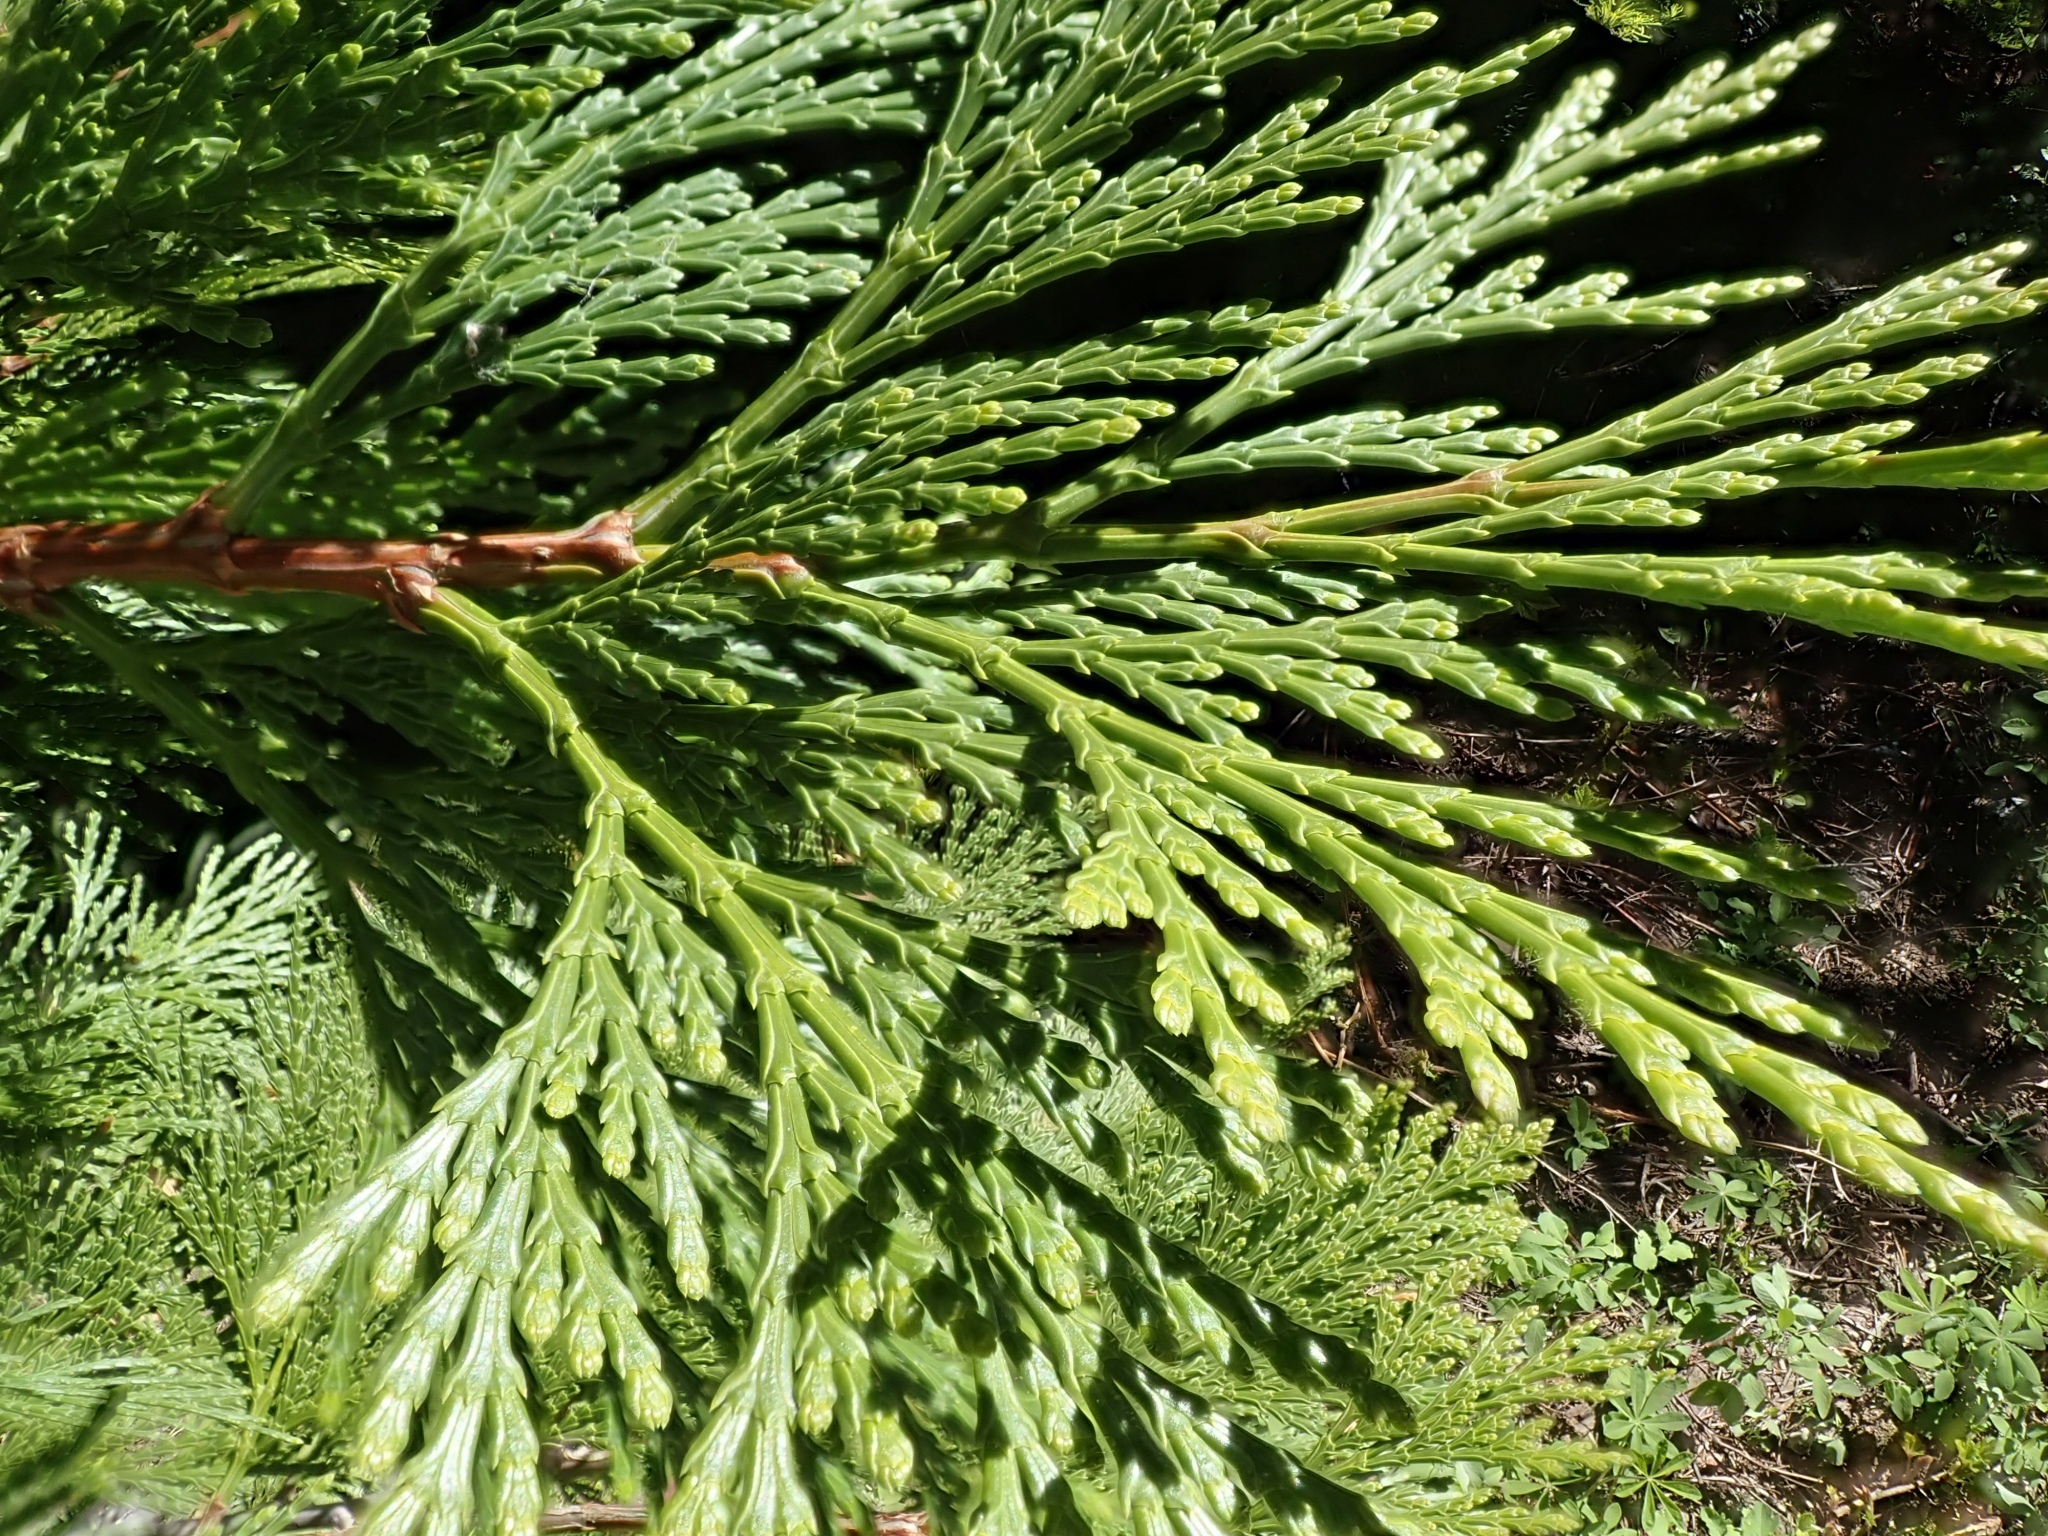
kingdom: Plantae
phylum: Tracheophyta
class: Pinopsida
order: Pinales
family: Cupressaceae
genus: Calocedrus
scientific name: Calocedrus decurrens
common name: Californian incense-cedar
